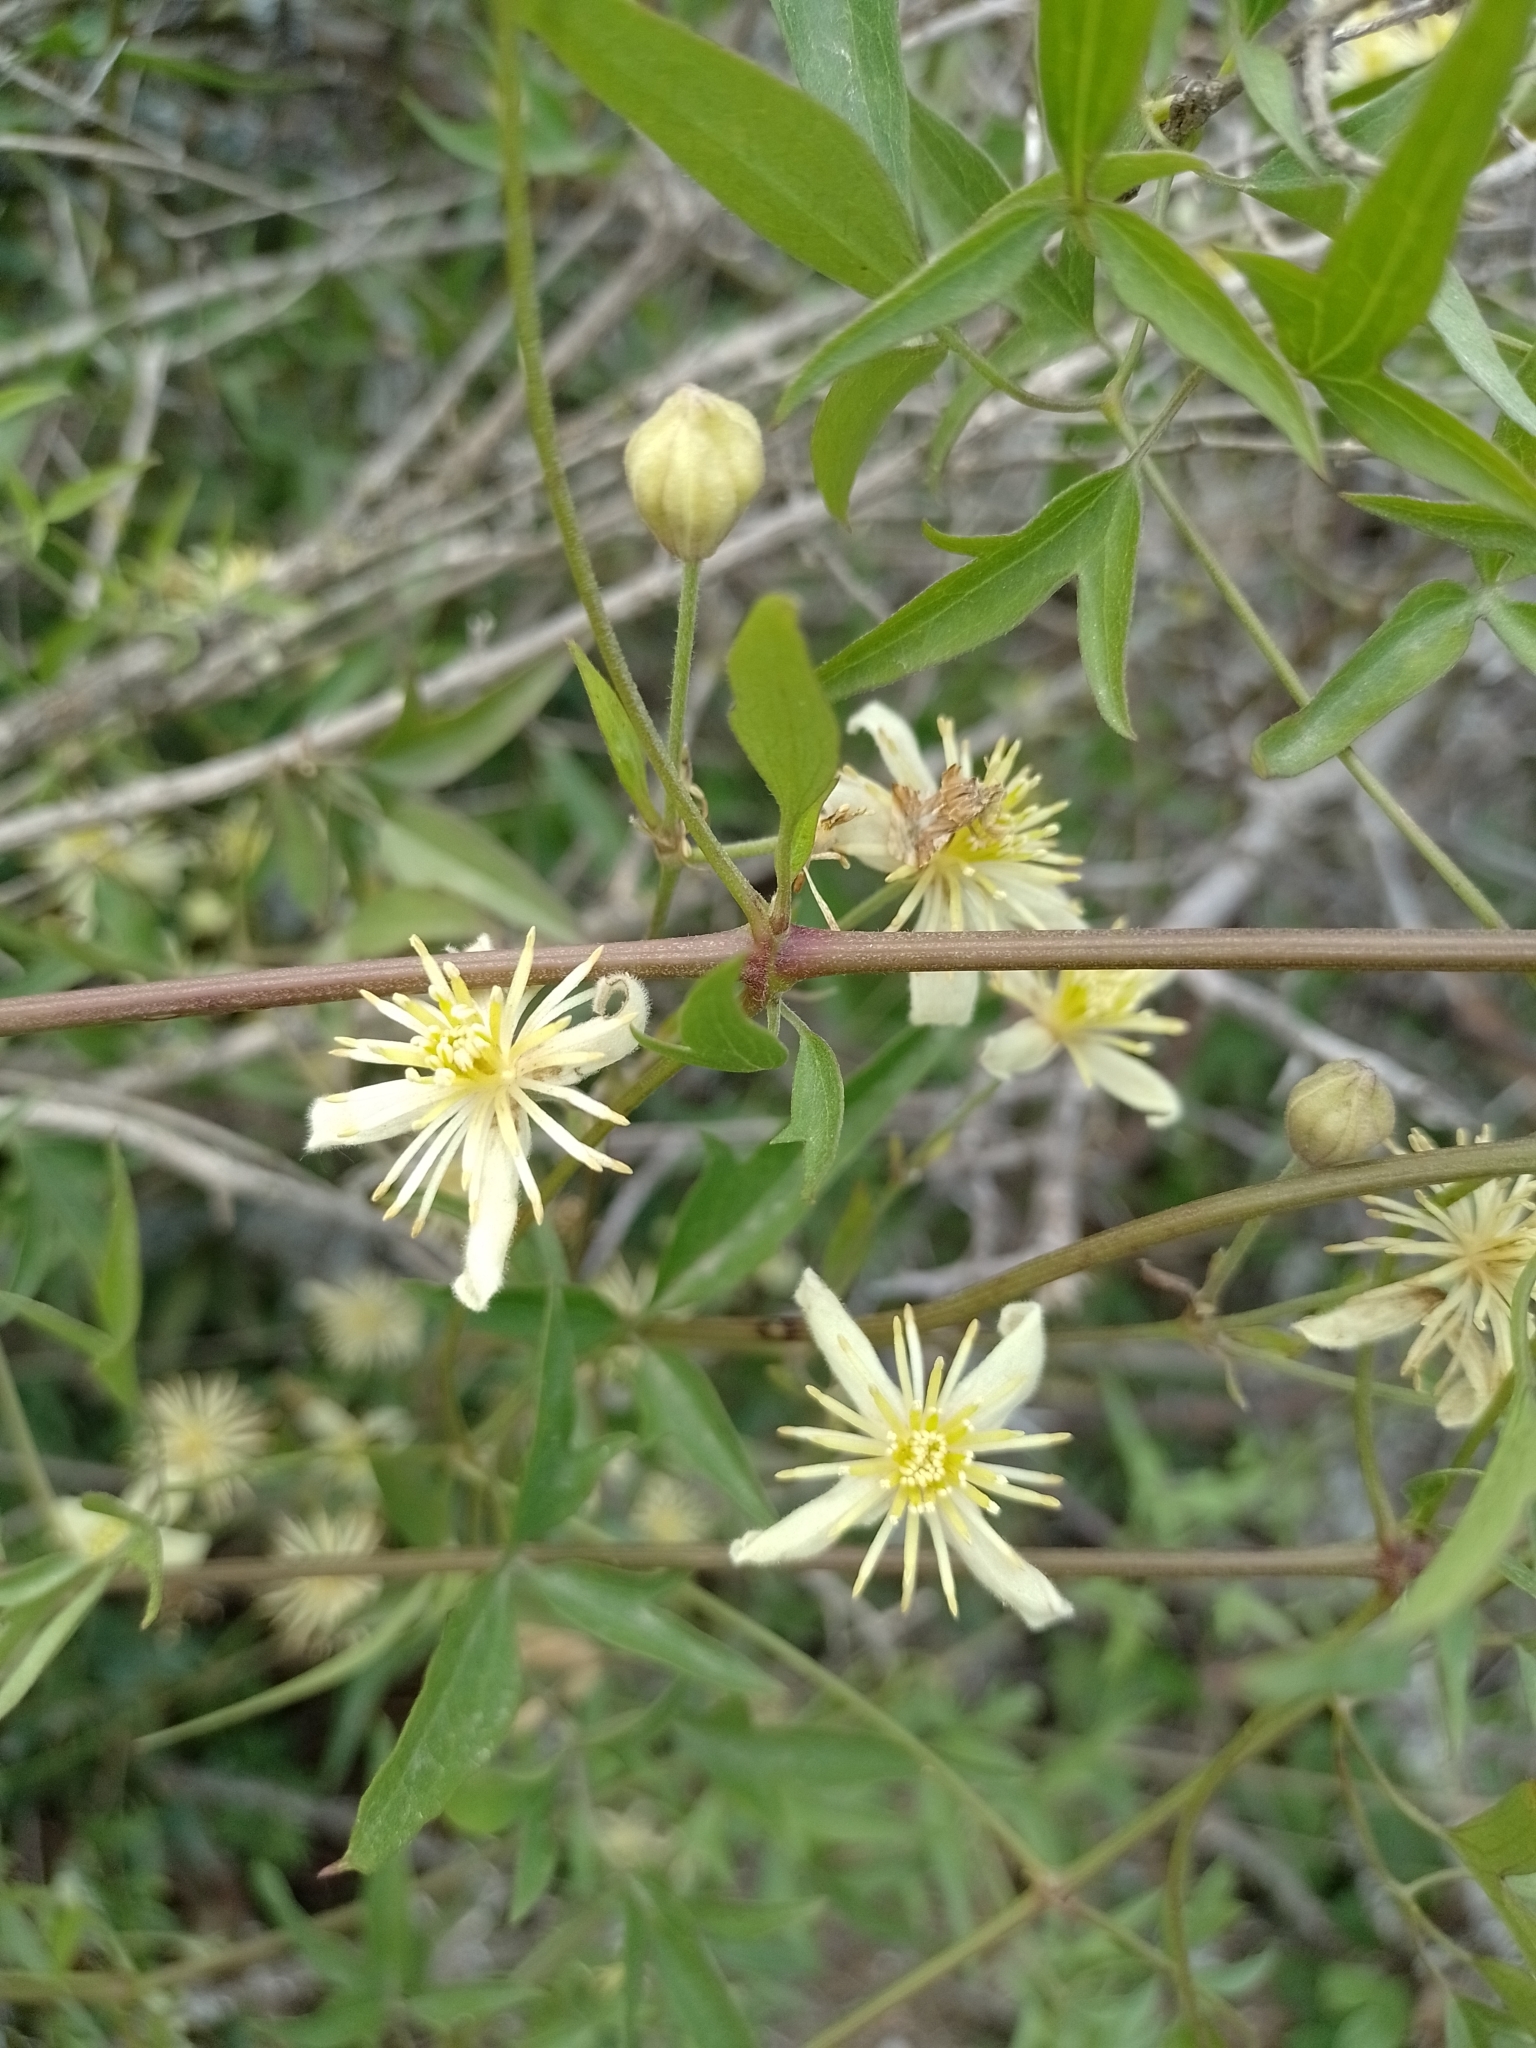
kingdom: Plantae
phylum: Tracheophyta
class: Magnoliopsida
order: Ranunculales
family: Ranunculaceae
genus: Clematis
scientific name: Clematis montevidensis
